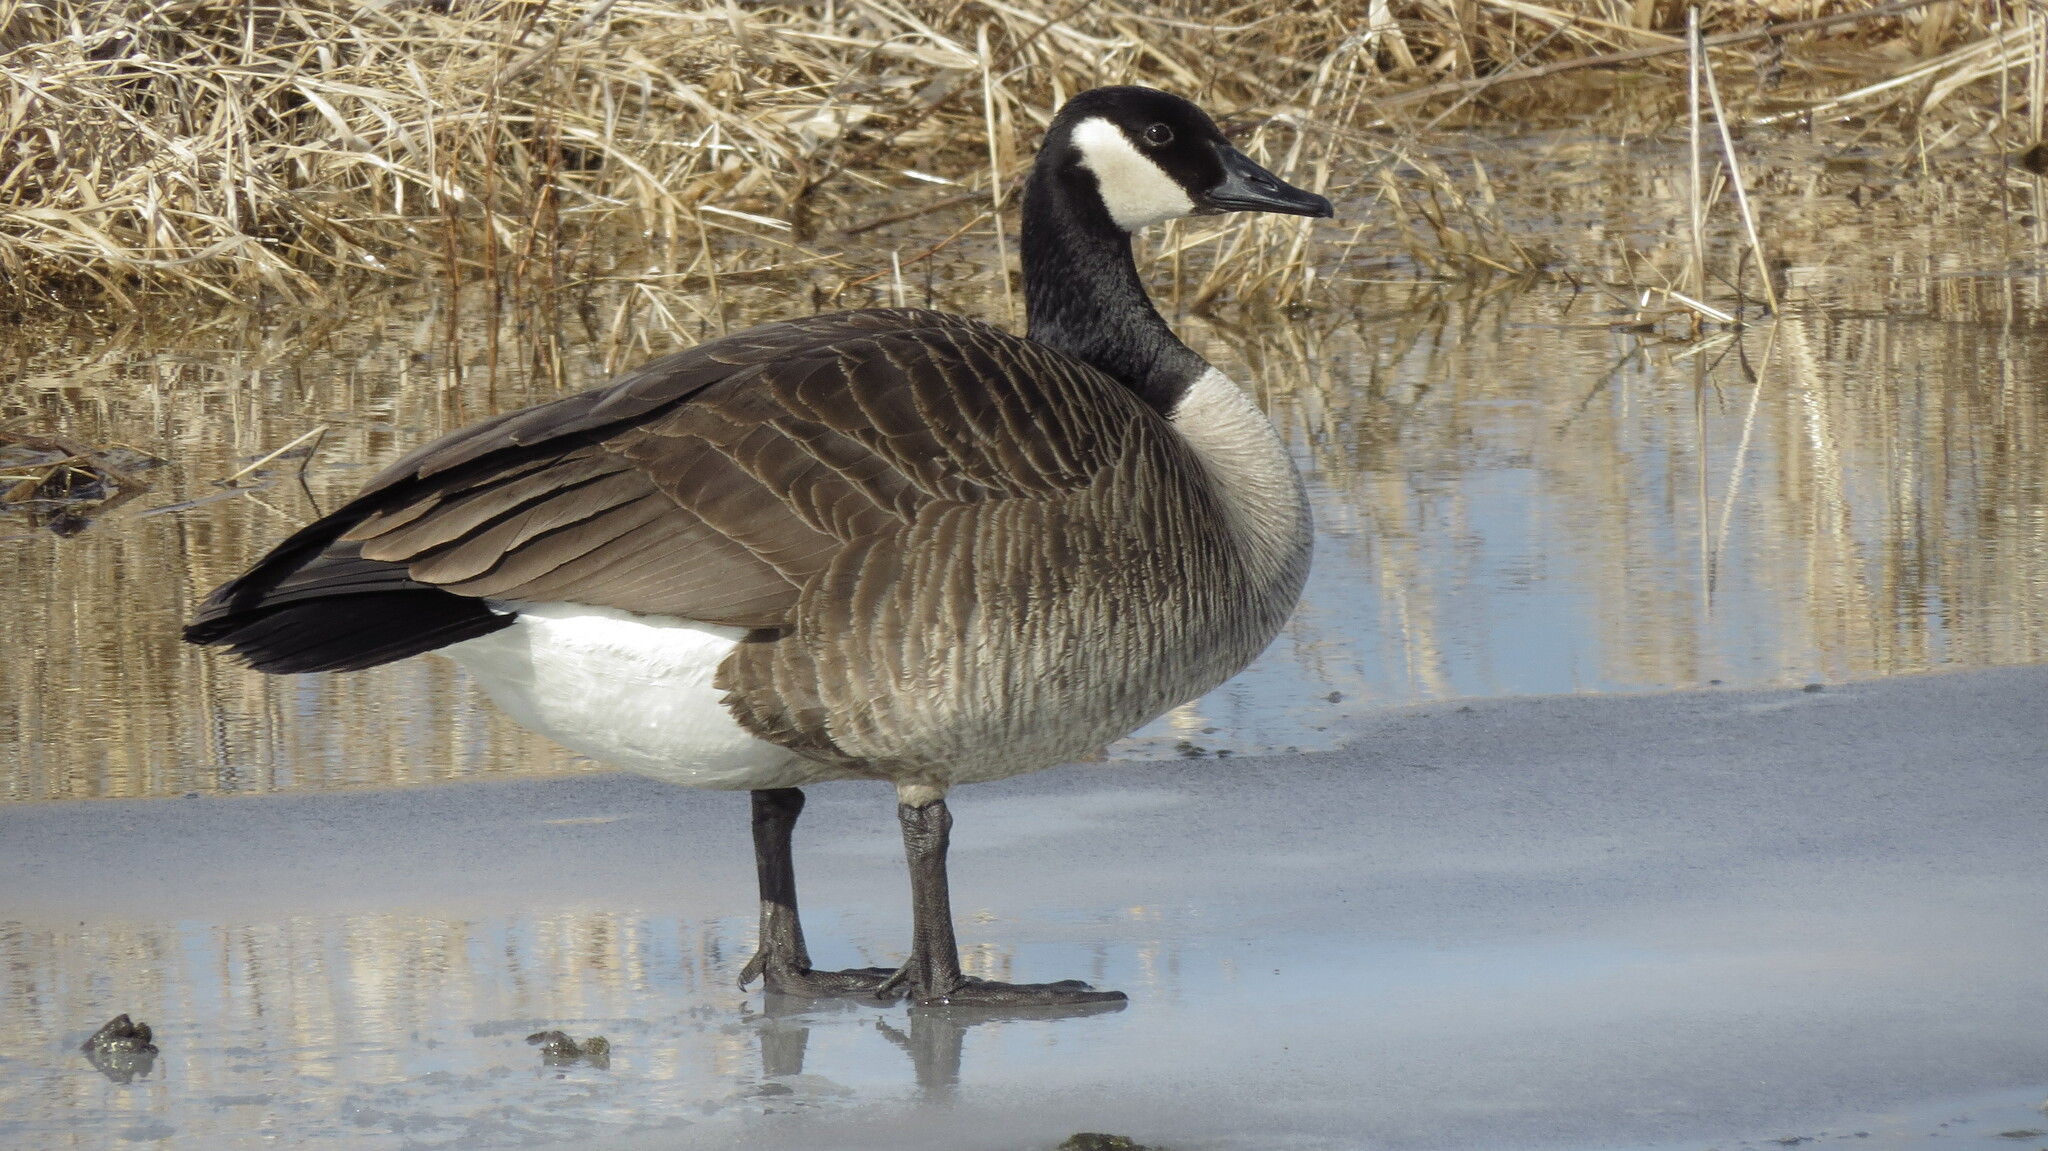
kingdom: Animalia
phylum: Chordata
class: Aves
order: Anseriformes
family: Anatidae
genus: Branta
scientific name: Branta canadensis
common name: Canada goose
